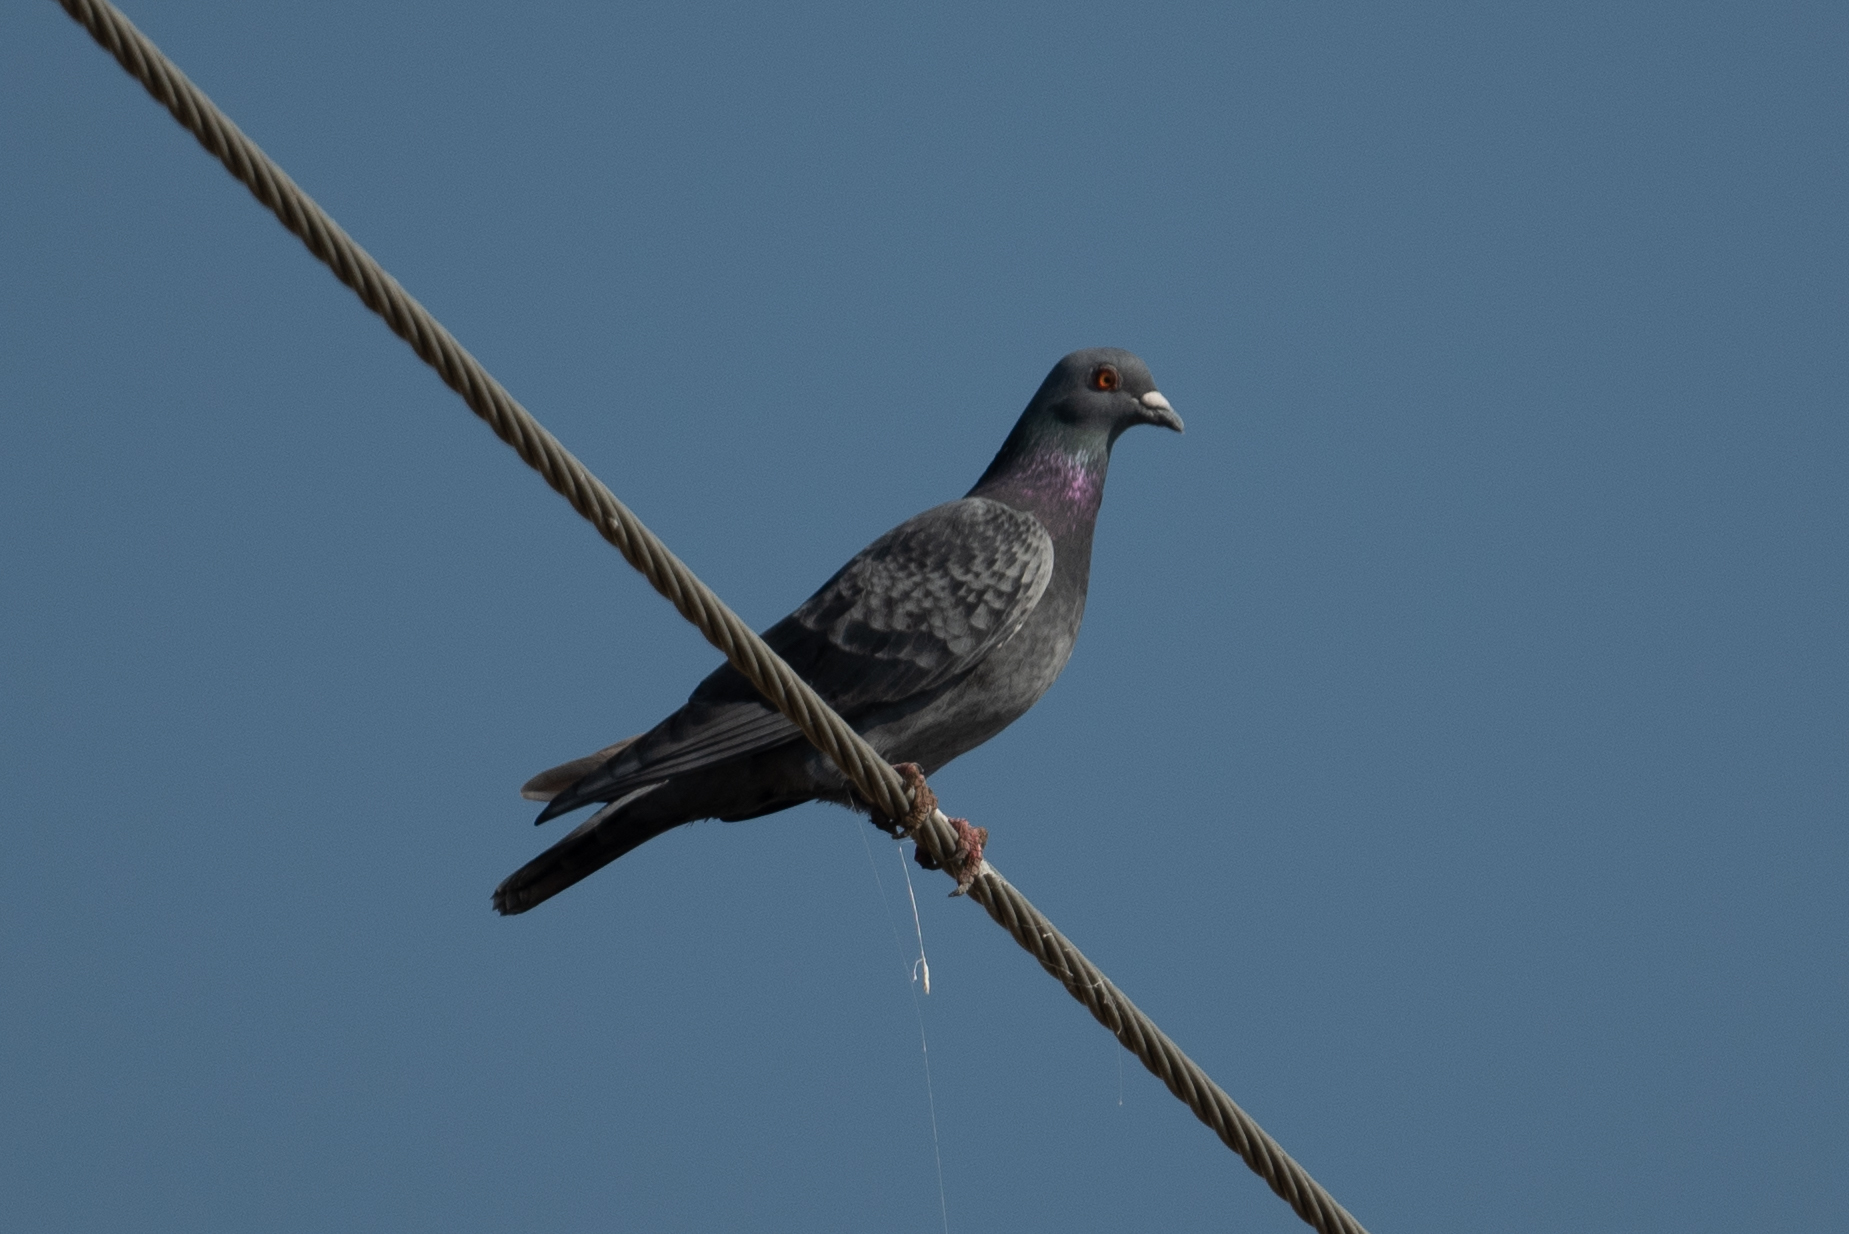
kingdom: Animalia
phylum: Chordata
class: Aves
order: Columbiformes
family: Columbidae
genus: Columba
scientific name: Columba livia
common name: Rock pigeon
